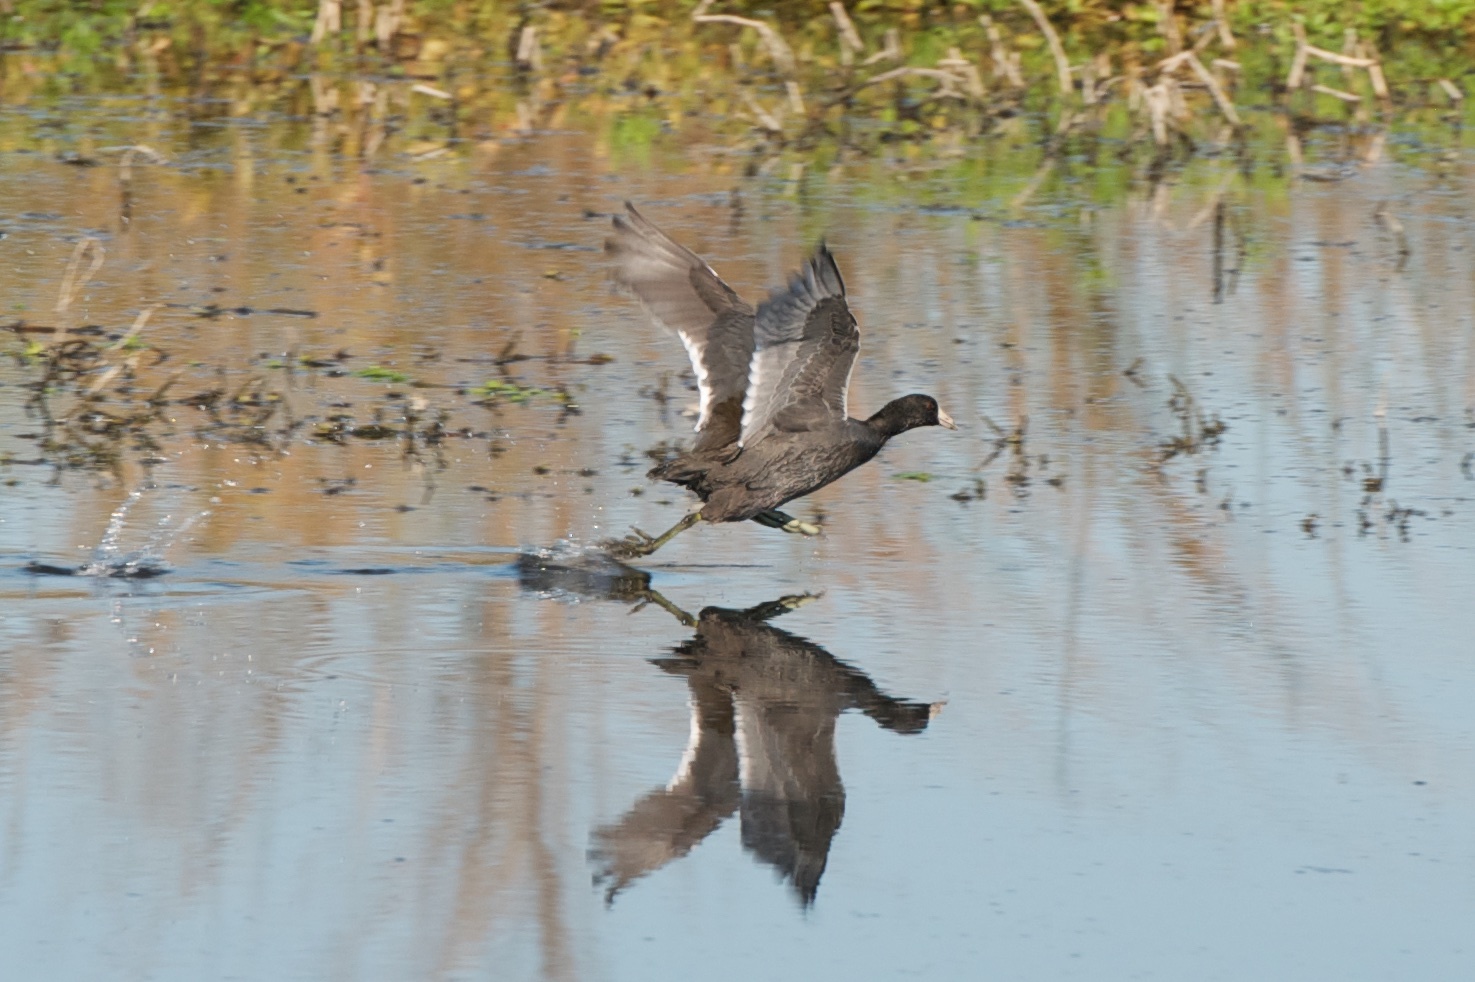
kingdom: Animalia
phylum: Chordata
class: Aves
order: Gruiformes
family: Rallidae
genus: Fulica
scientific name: Fulica americana
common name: American coot
